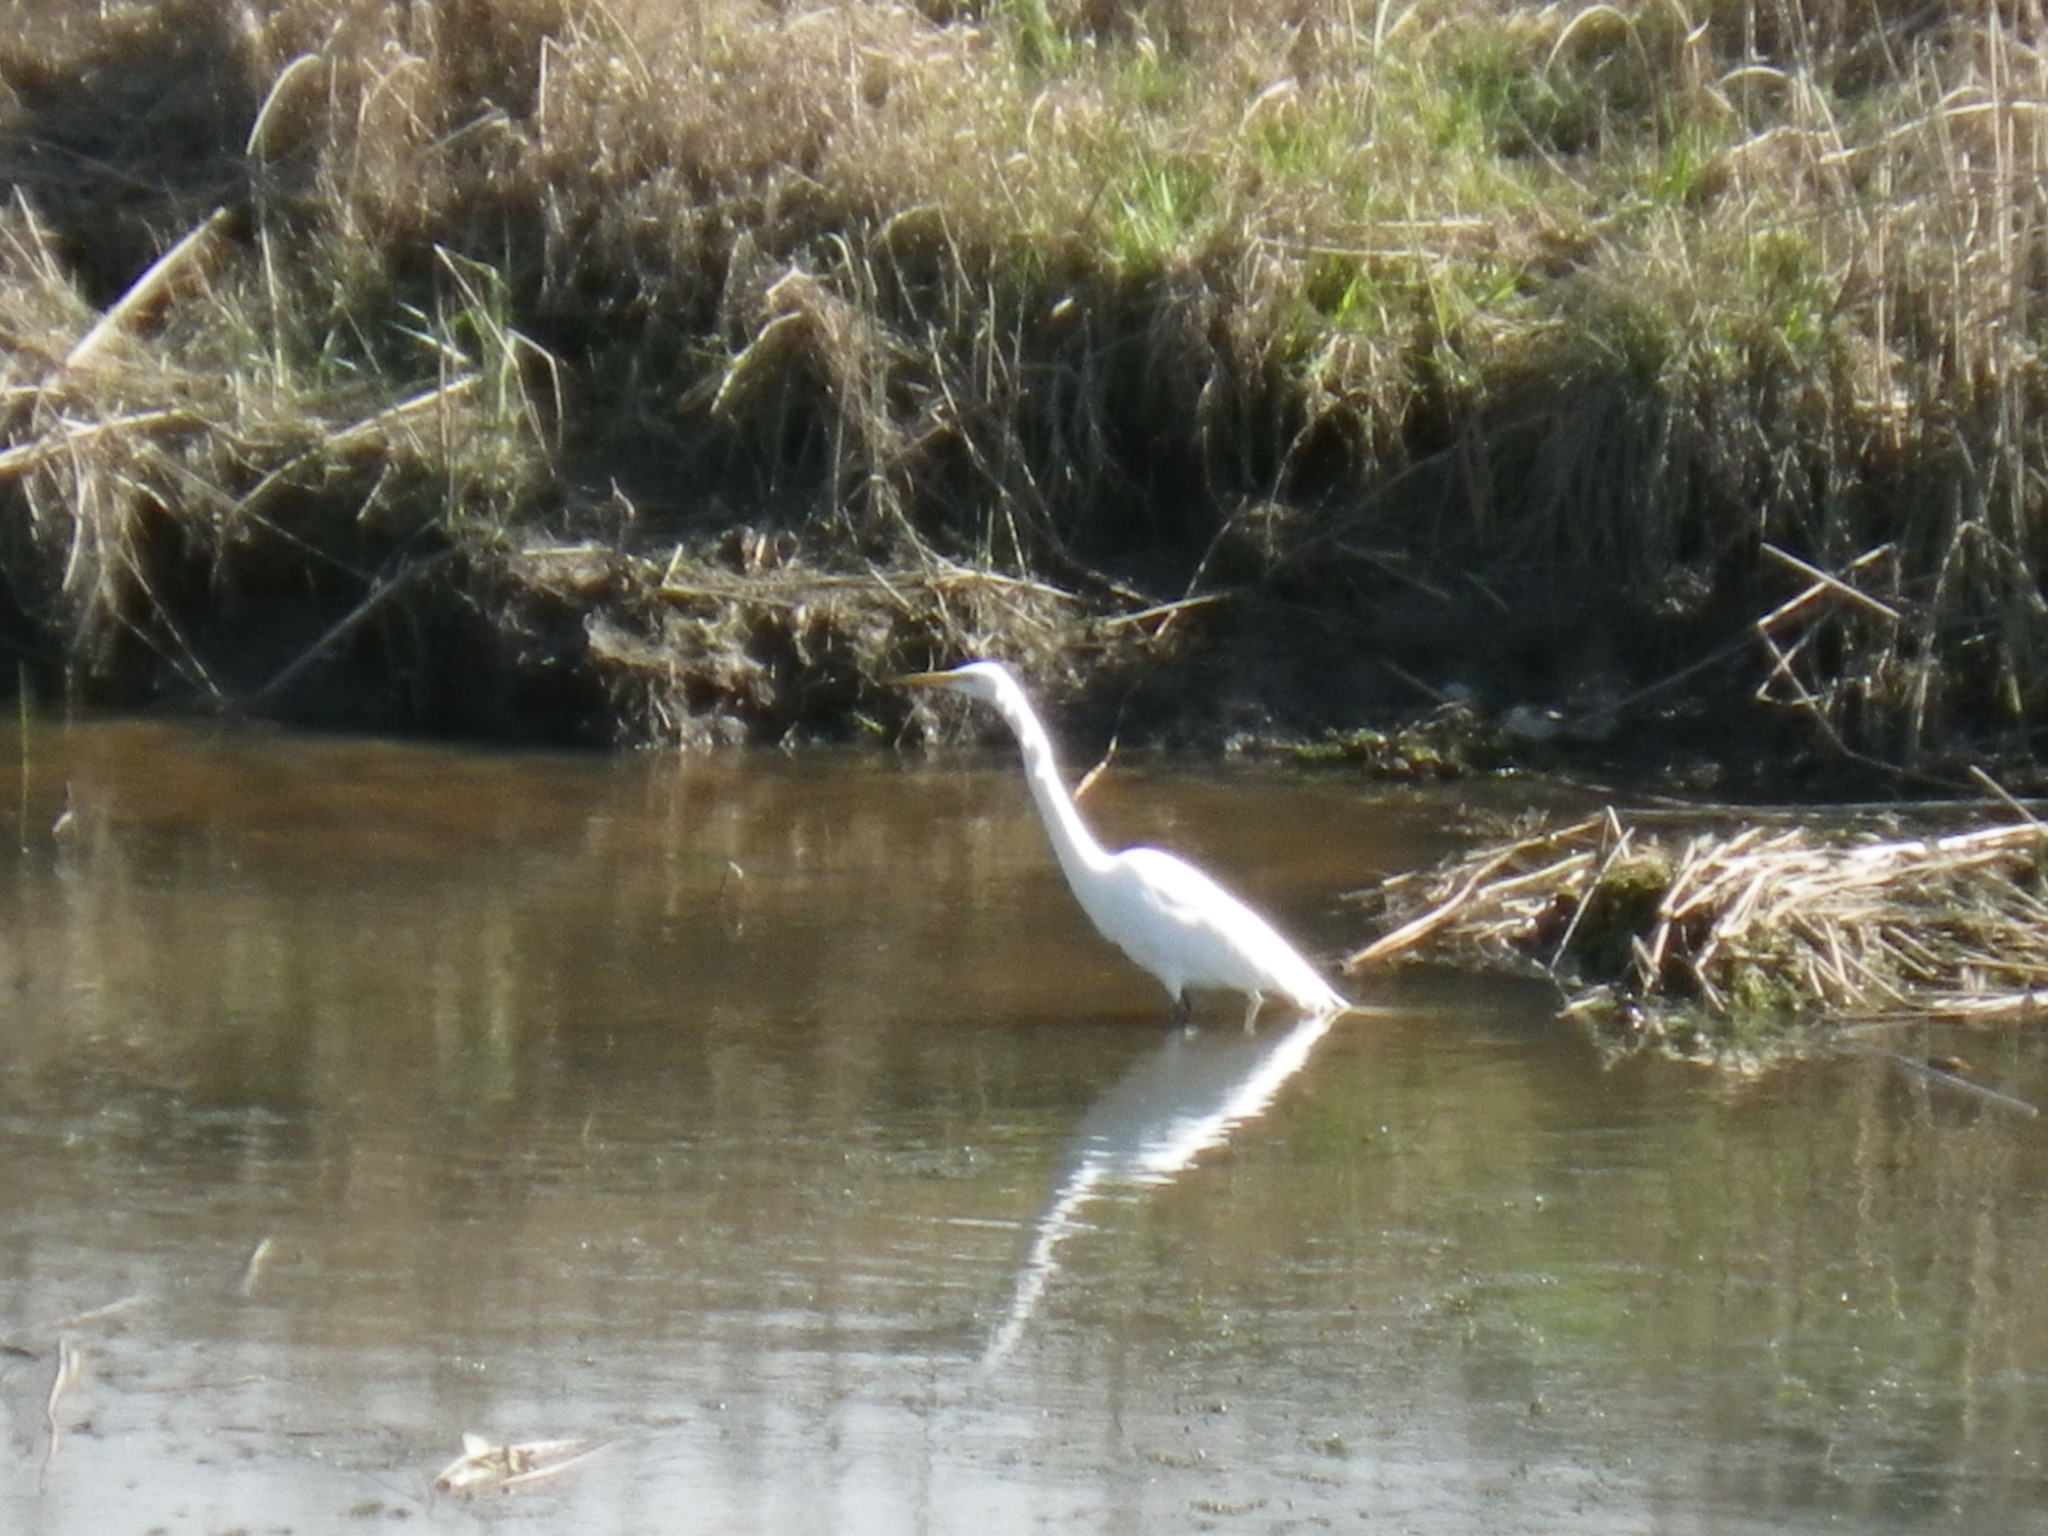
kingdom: Animalia
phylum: Chordata
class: Aves
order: Pelecaniformes
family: Ardeidae
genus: Ardea
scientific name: Ardea alba
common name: Great egret
